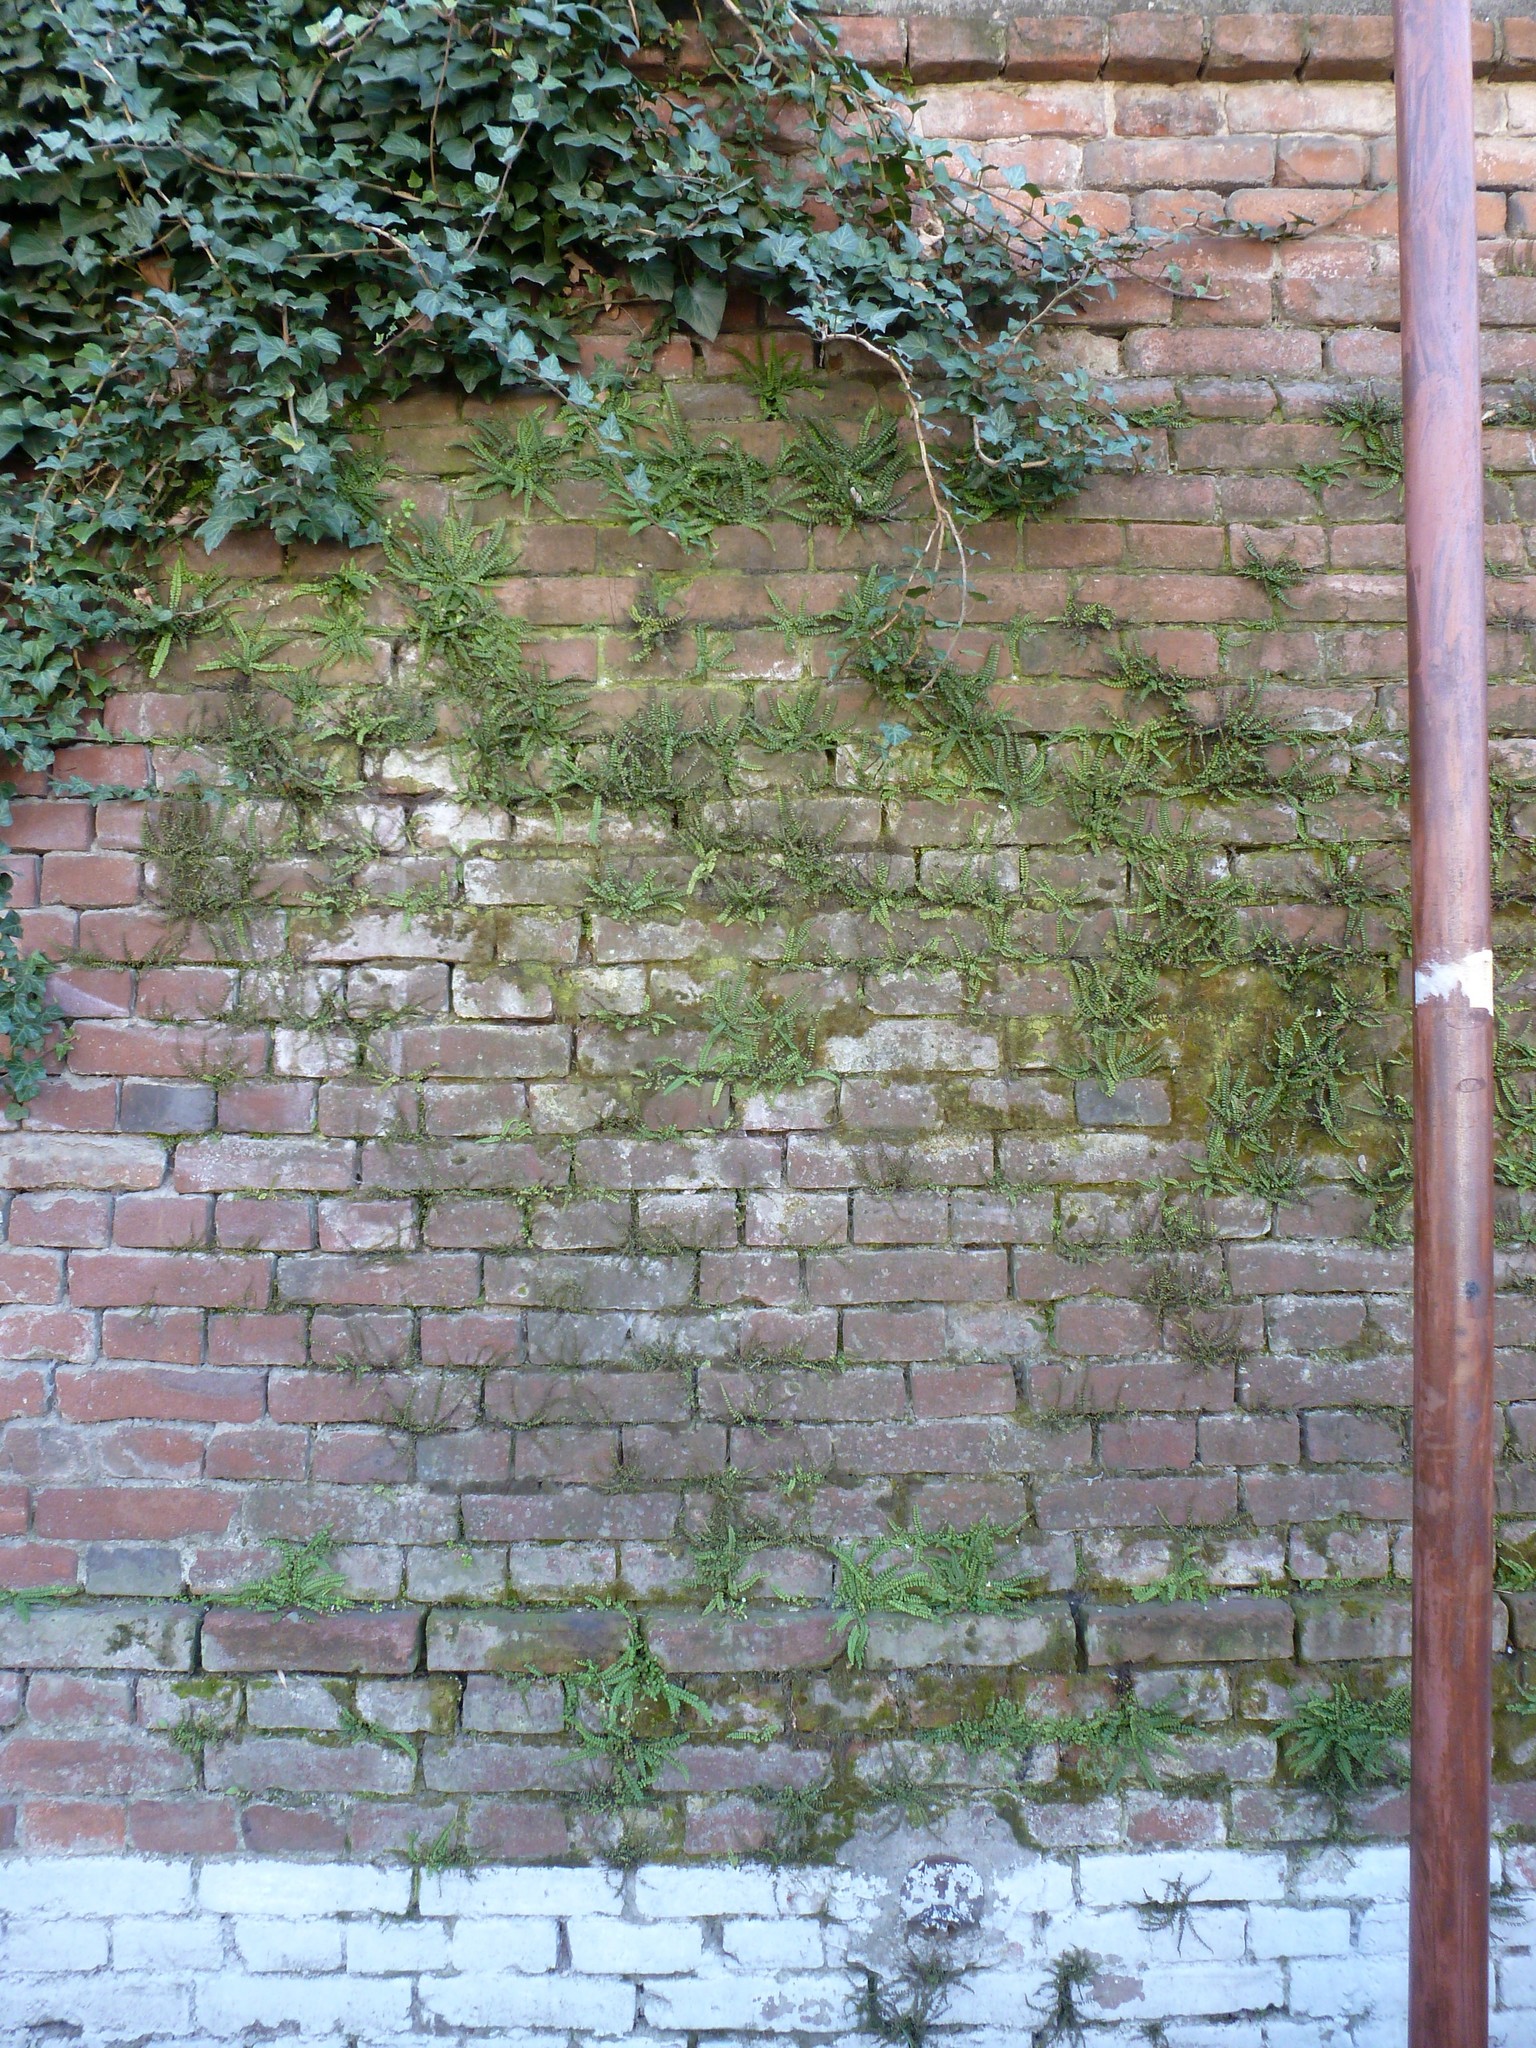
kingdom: Plantae
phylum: Tracheophyta
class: Polypodiopsida
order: Polypodiales
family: Aspleniaceae
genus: Asplenium
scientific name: Asplenium trichomanes
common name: Maidenhair spleenwort
